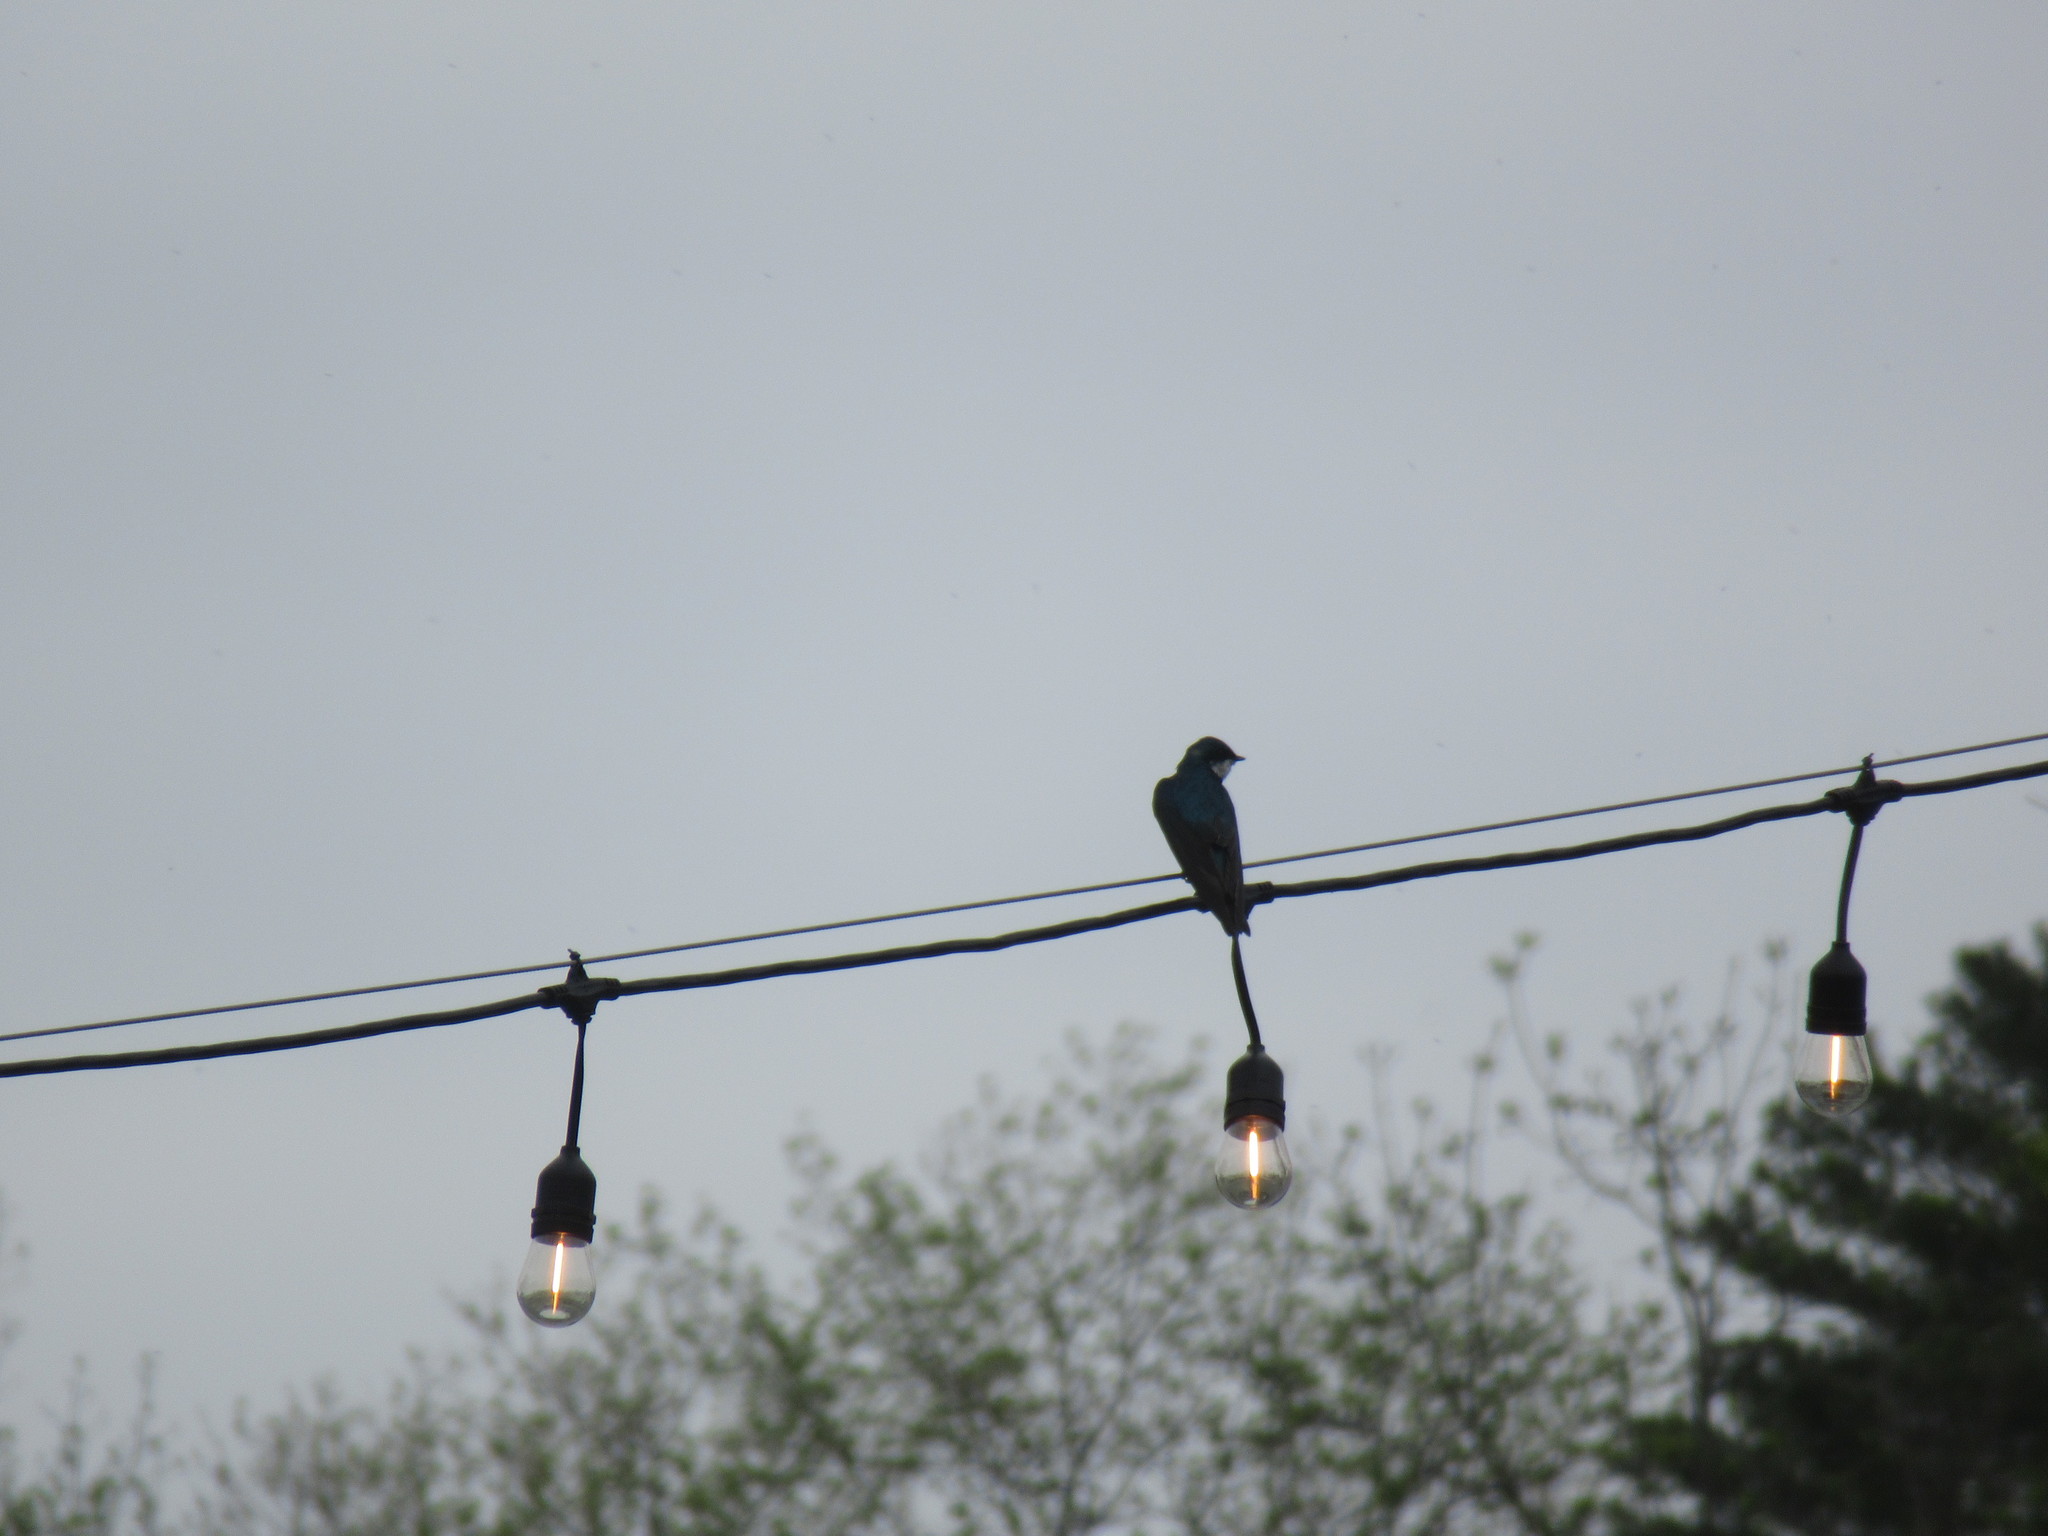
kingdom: Animalia
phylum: Chordata
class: Aves
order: Passeriformes
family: Hirundinidae
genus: Tachycineta
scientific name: Tachycineta bicolor
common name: Tree swallow
